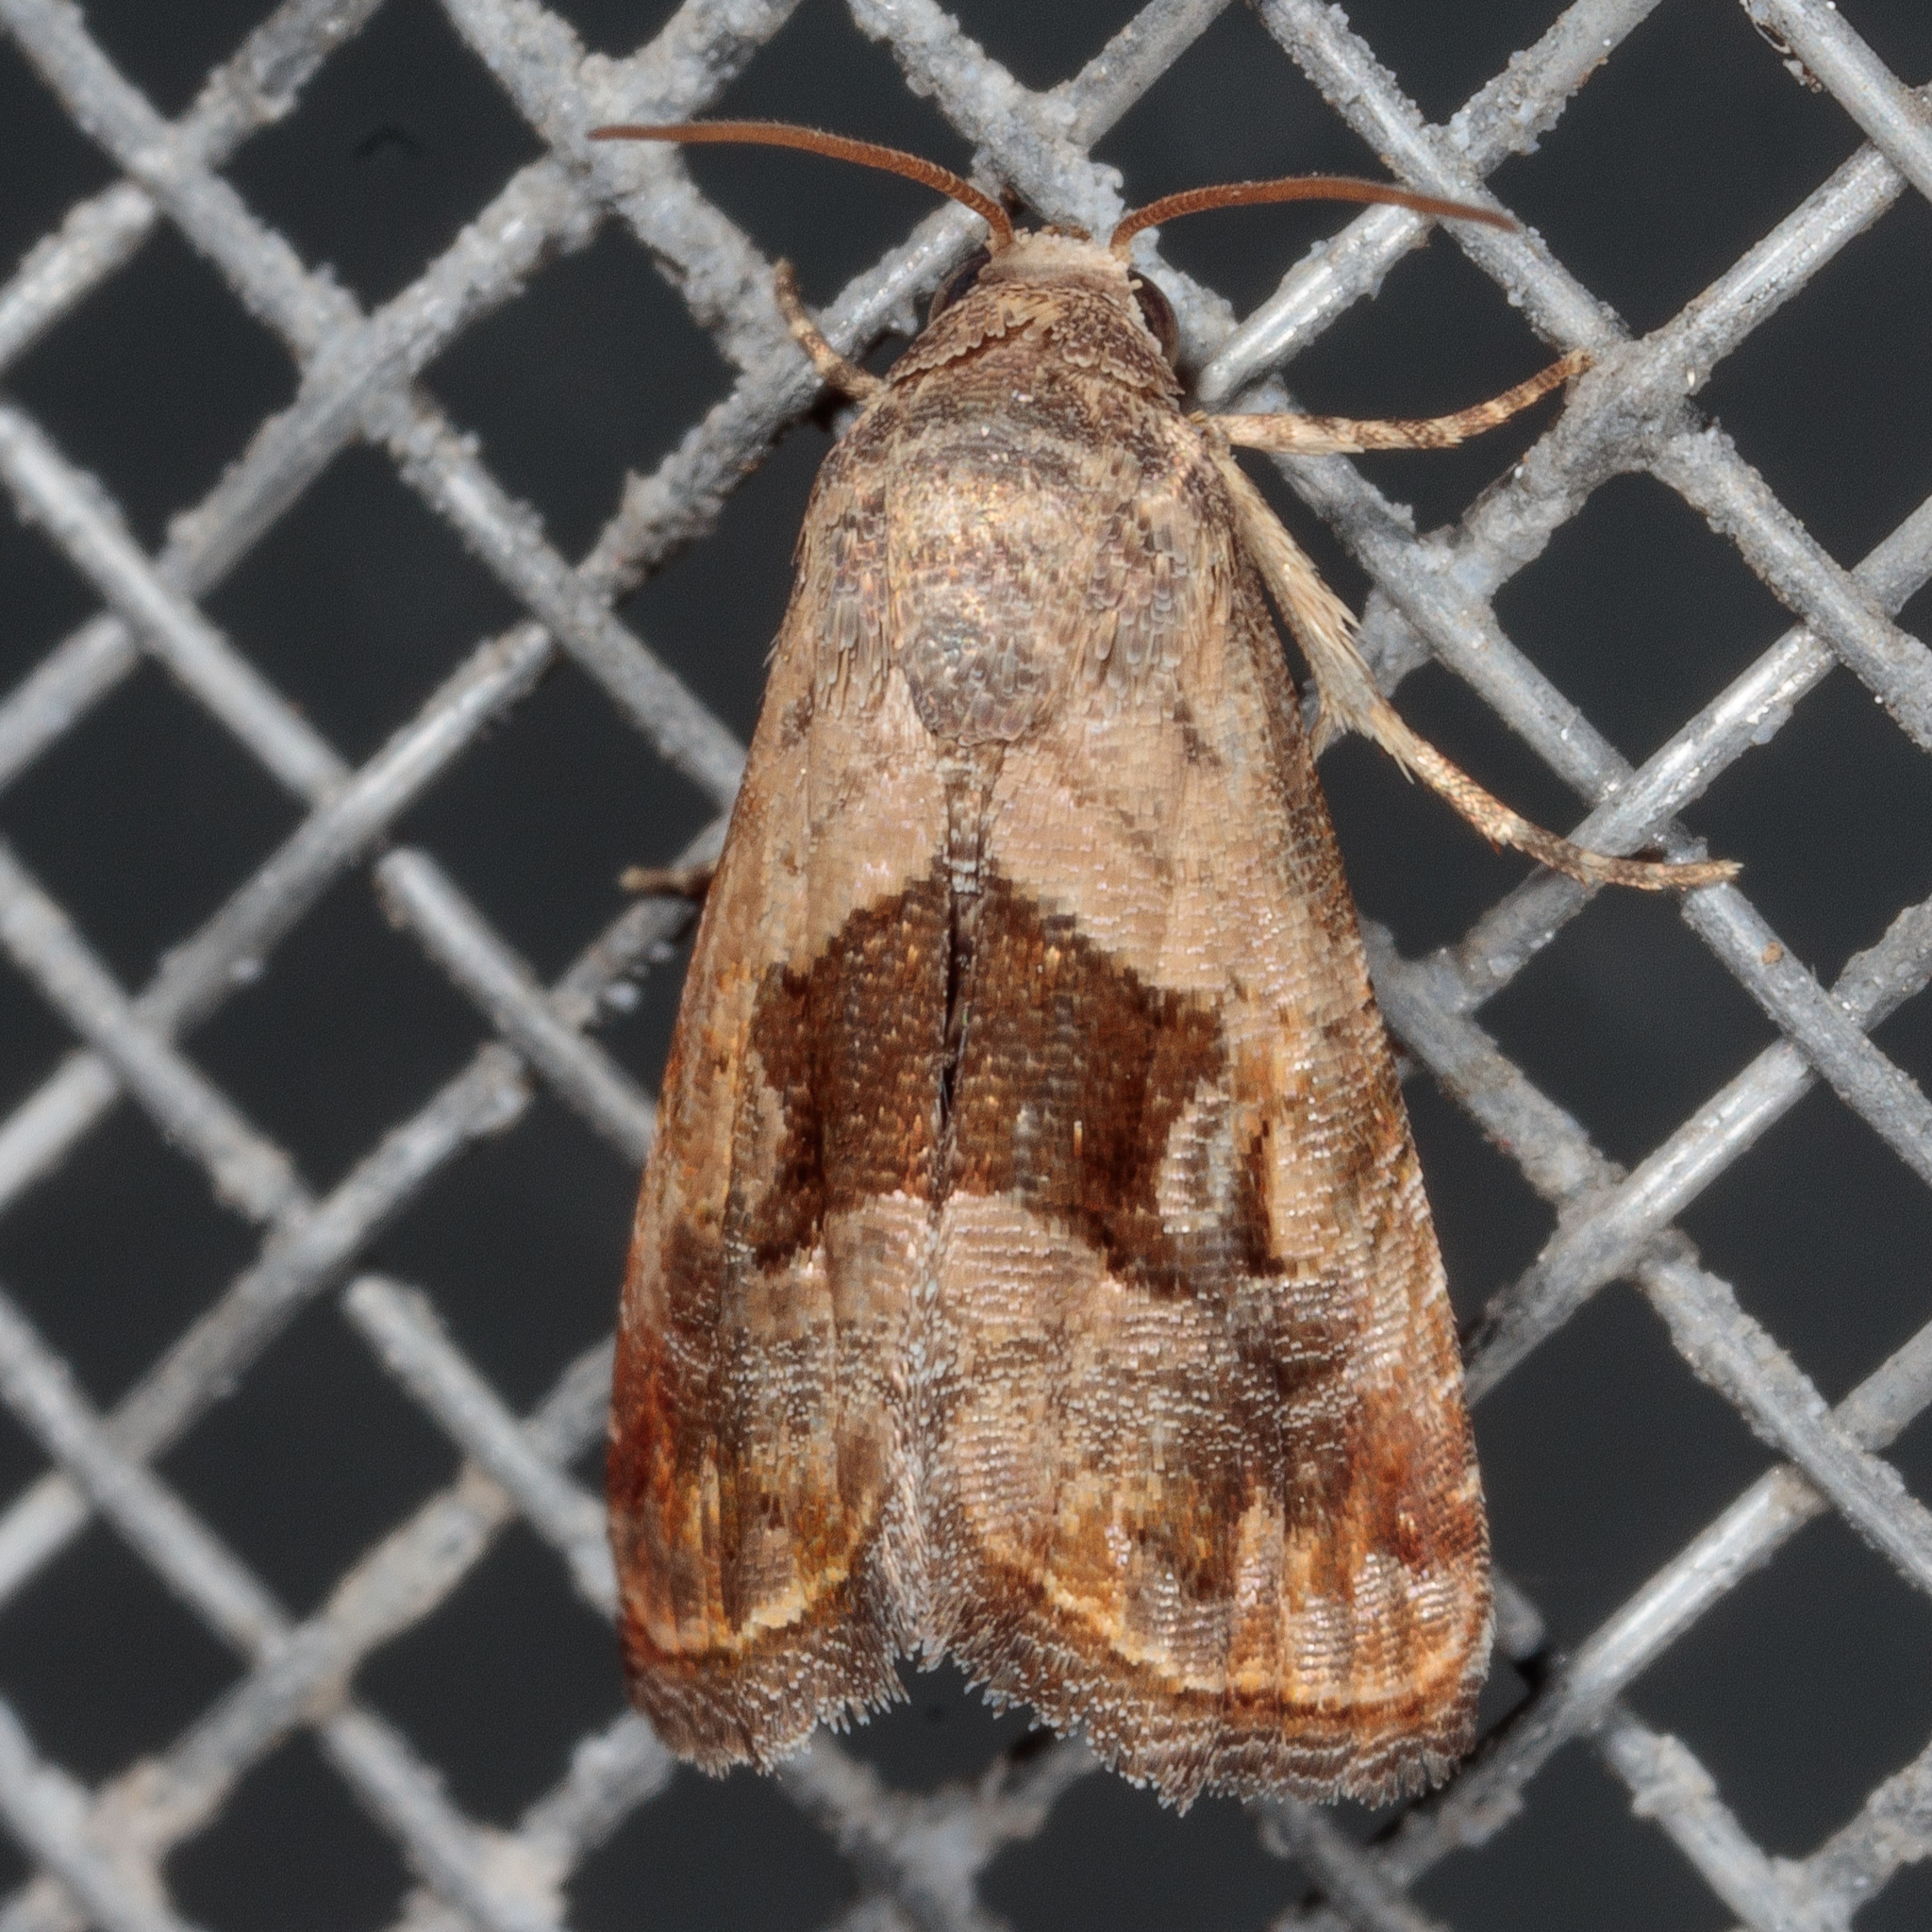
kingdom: Animalia
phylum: Arthropoda
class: Insecta
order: Lepidoptera
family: Noctuidae
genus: Tripudia
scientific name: Tripudia quadrifera
